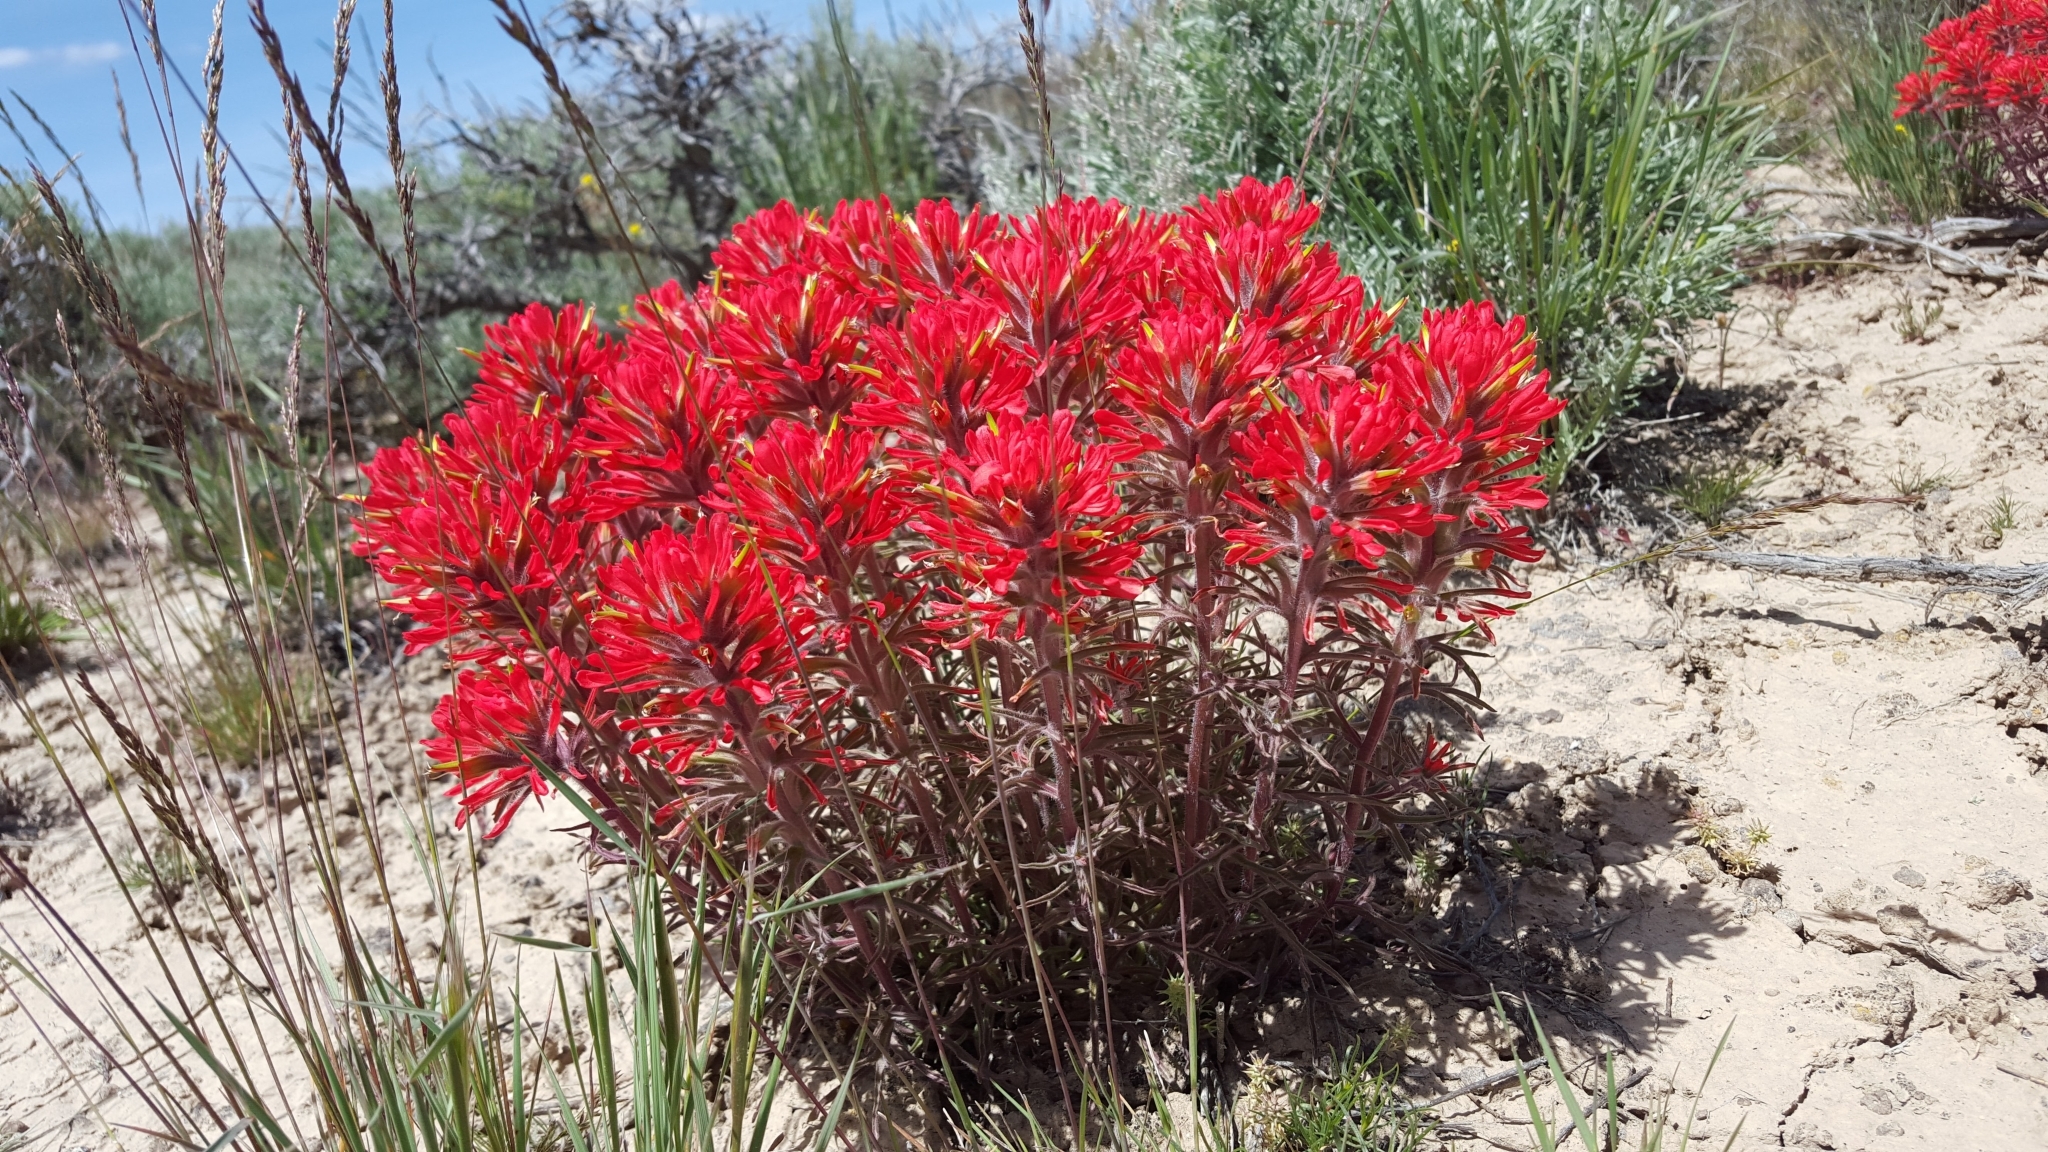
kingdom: Plantae
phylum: Tracheophyta
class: Magnoliopsida
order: Lamiales
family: Orobanchaceae
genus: Castilleja
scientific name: Castilleja chromosa
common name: Desert paintbrush
